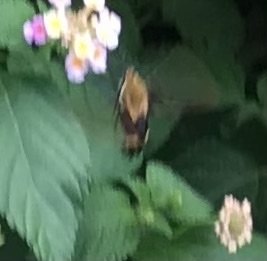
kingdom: Animalia
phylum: Arthropoda
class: Insecta
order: Lepidoptera
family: Sphingidae
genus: Hemaris
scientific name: Hemaris diffinis
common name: Bumblebee moth
